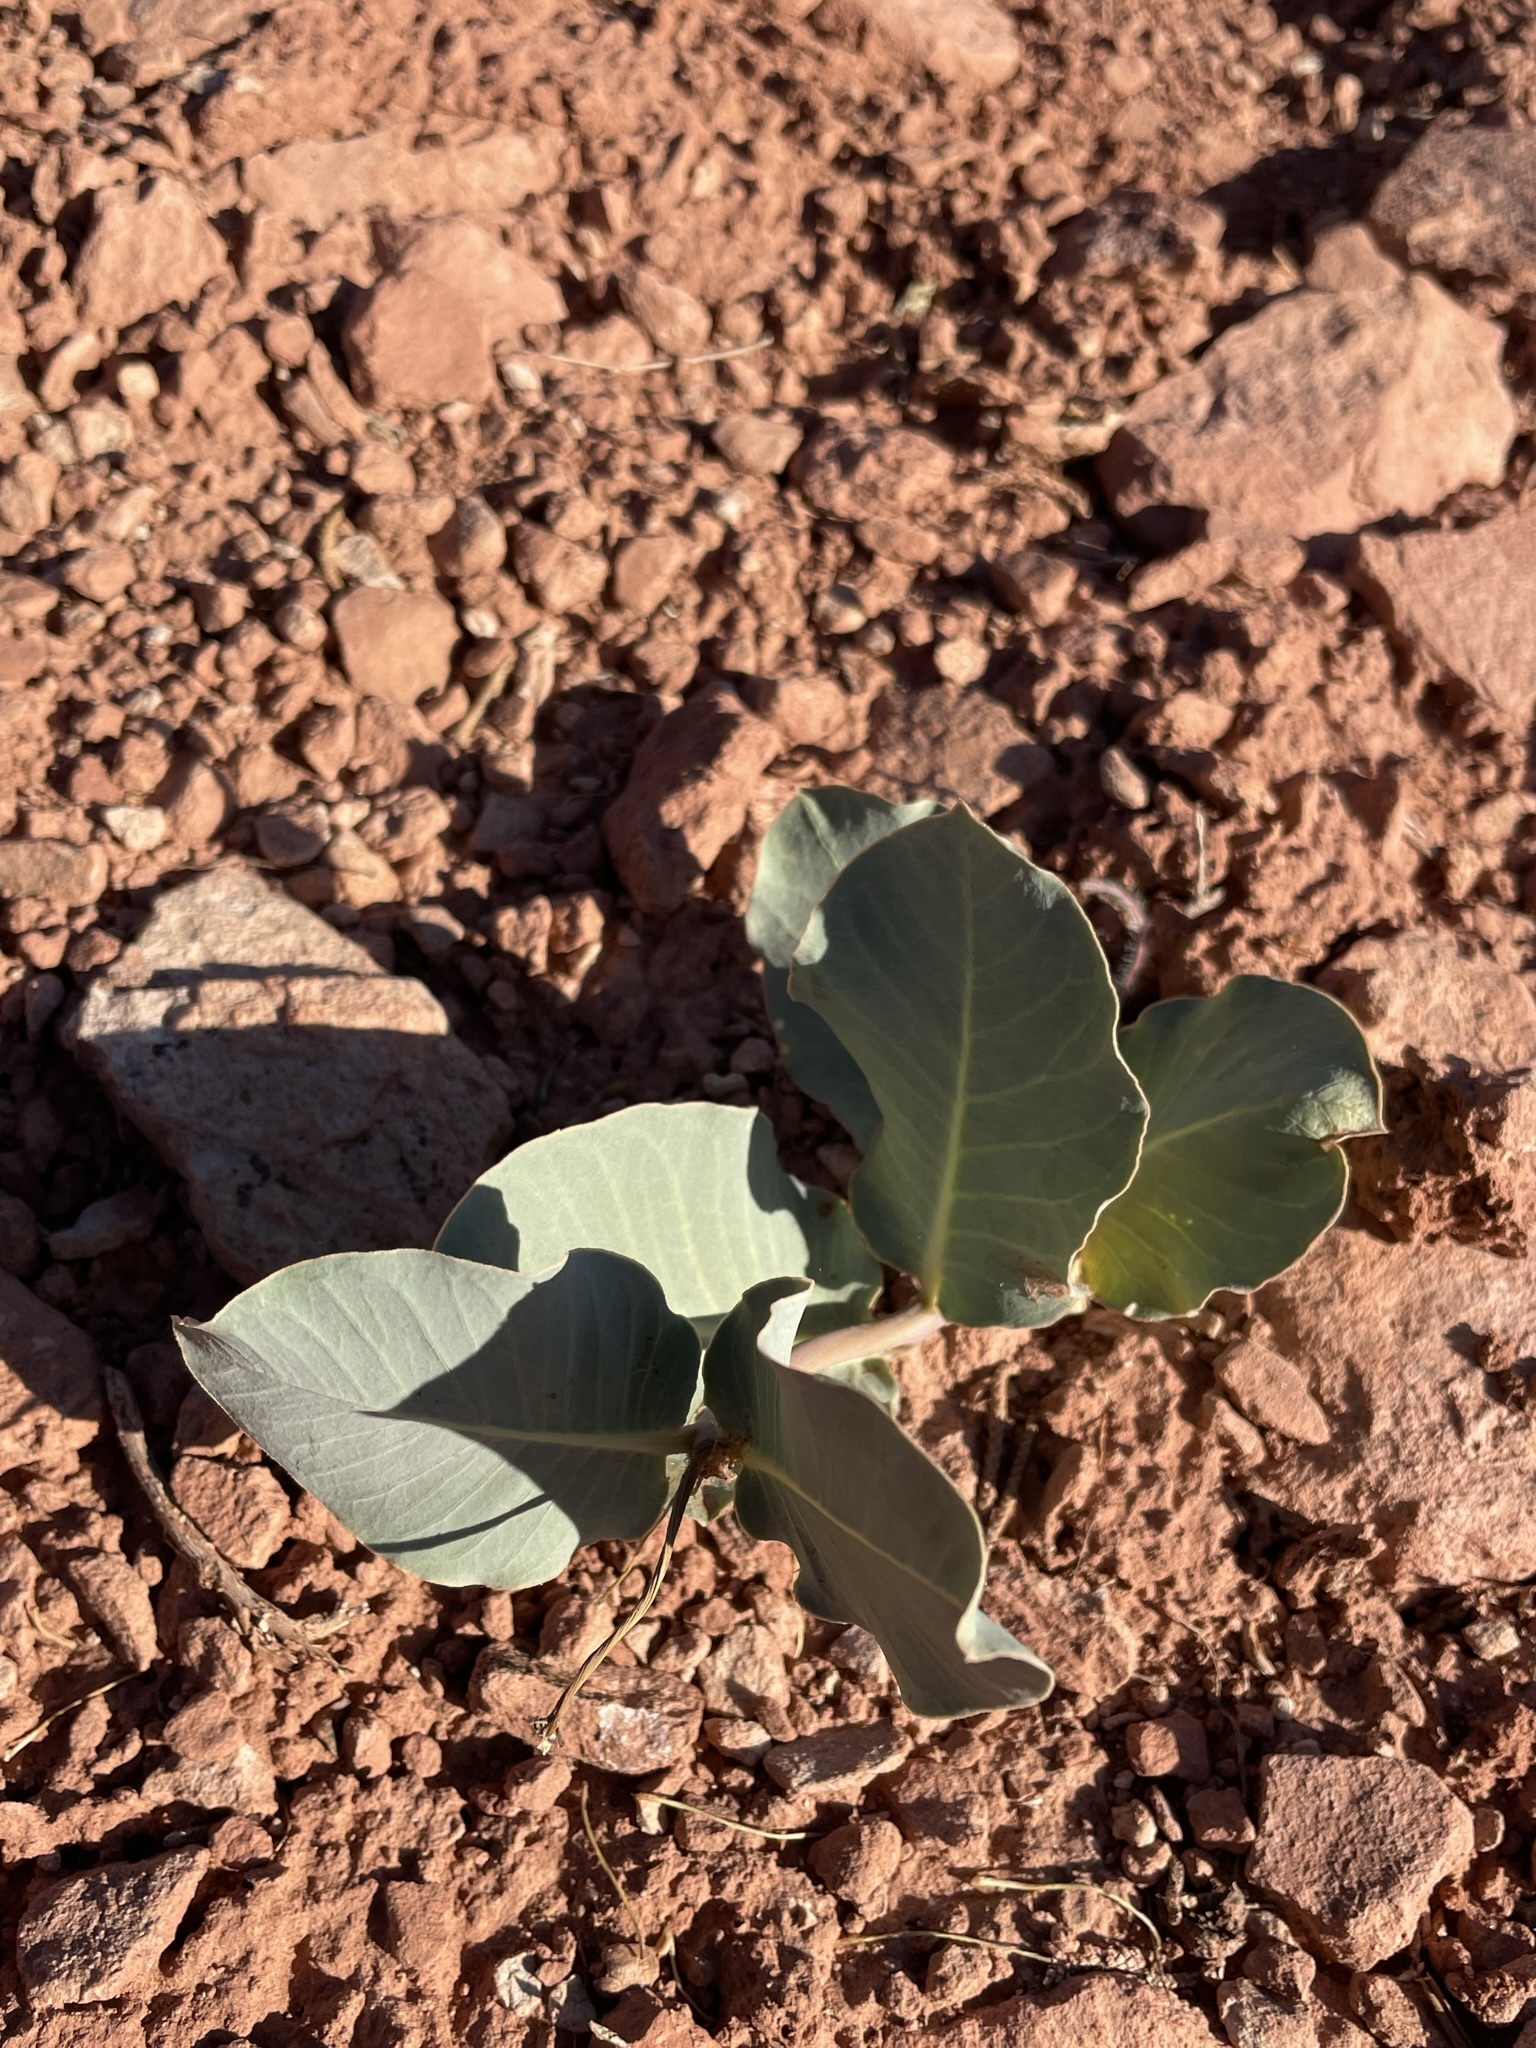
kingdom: Plantae
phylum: Tracheophyta
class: Magnoliopsida
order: Gentianales
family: Apocynaceae
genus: Asclepias
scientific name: Asclepias cryptoceras
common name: Humboldt mountains milkweed
